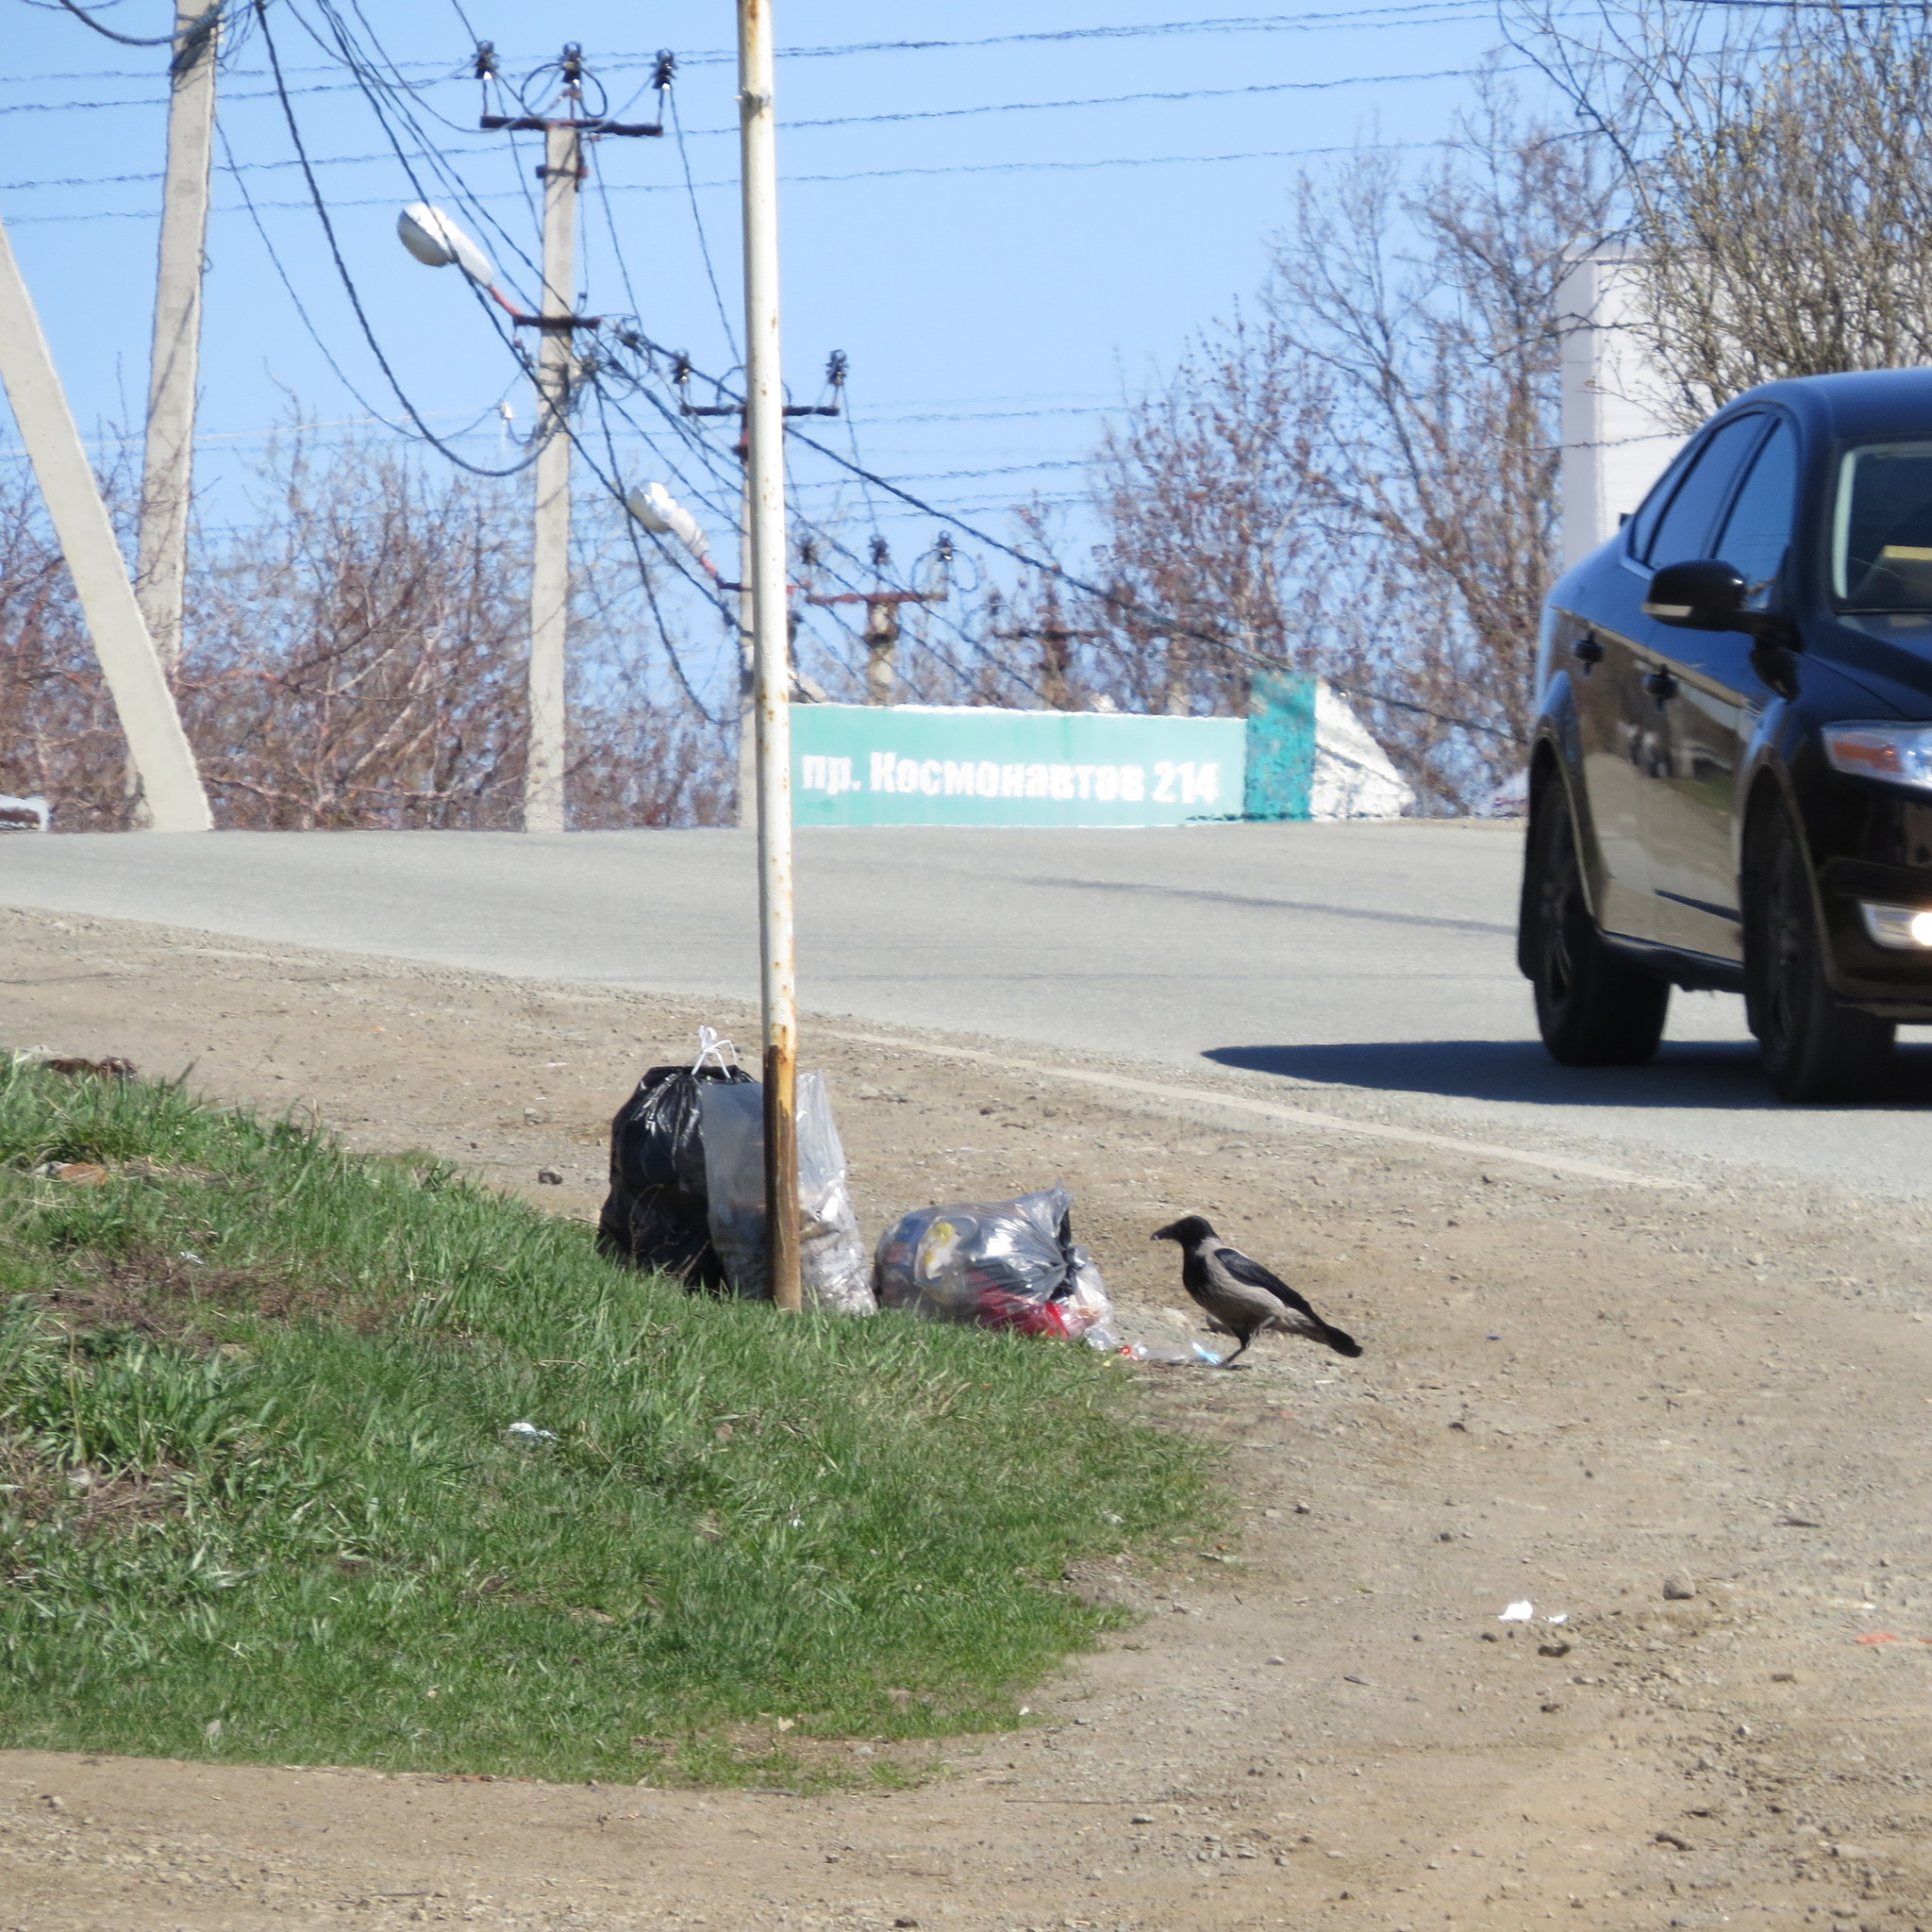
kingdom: Animalia
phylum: Chordata
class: Aves
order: Passeriformes
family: Corvidae
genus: Corvus
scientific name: Corvus cornix
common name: Hooded crow
